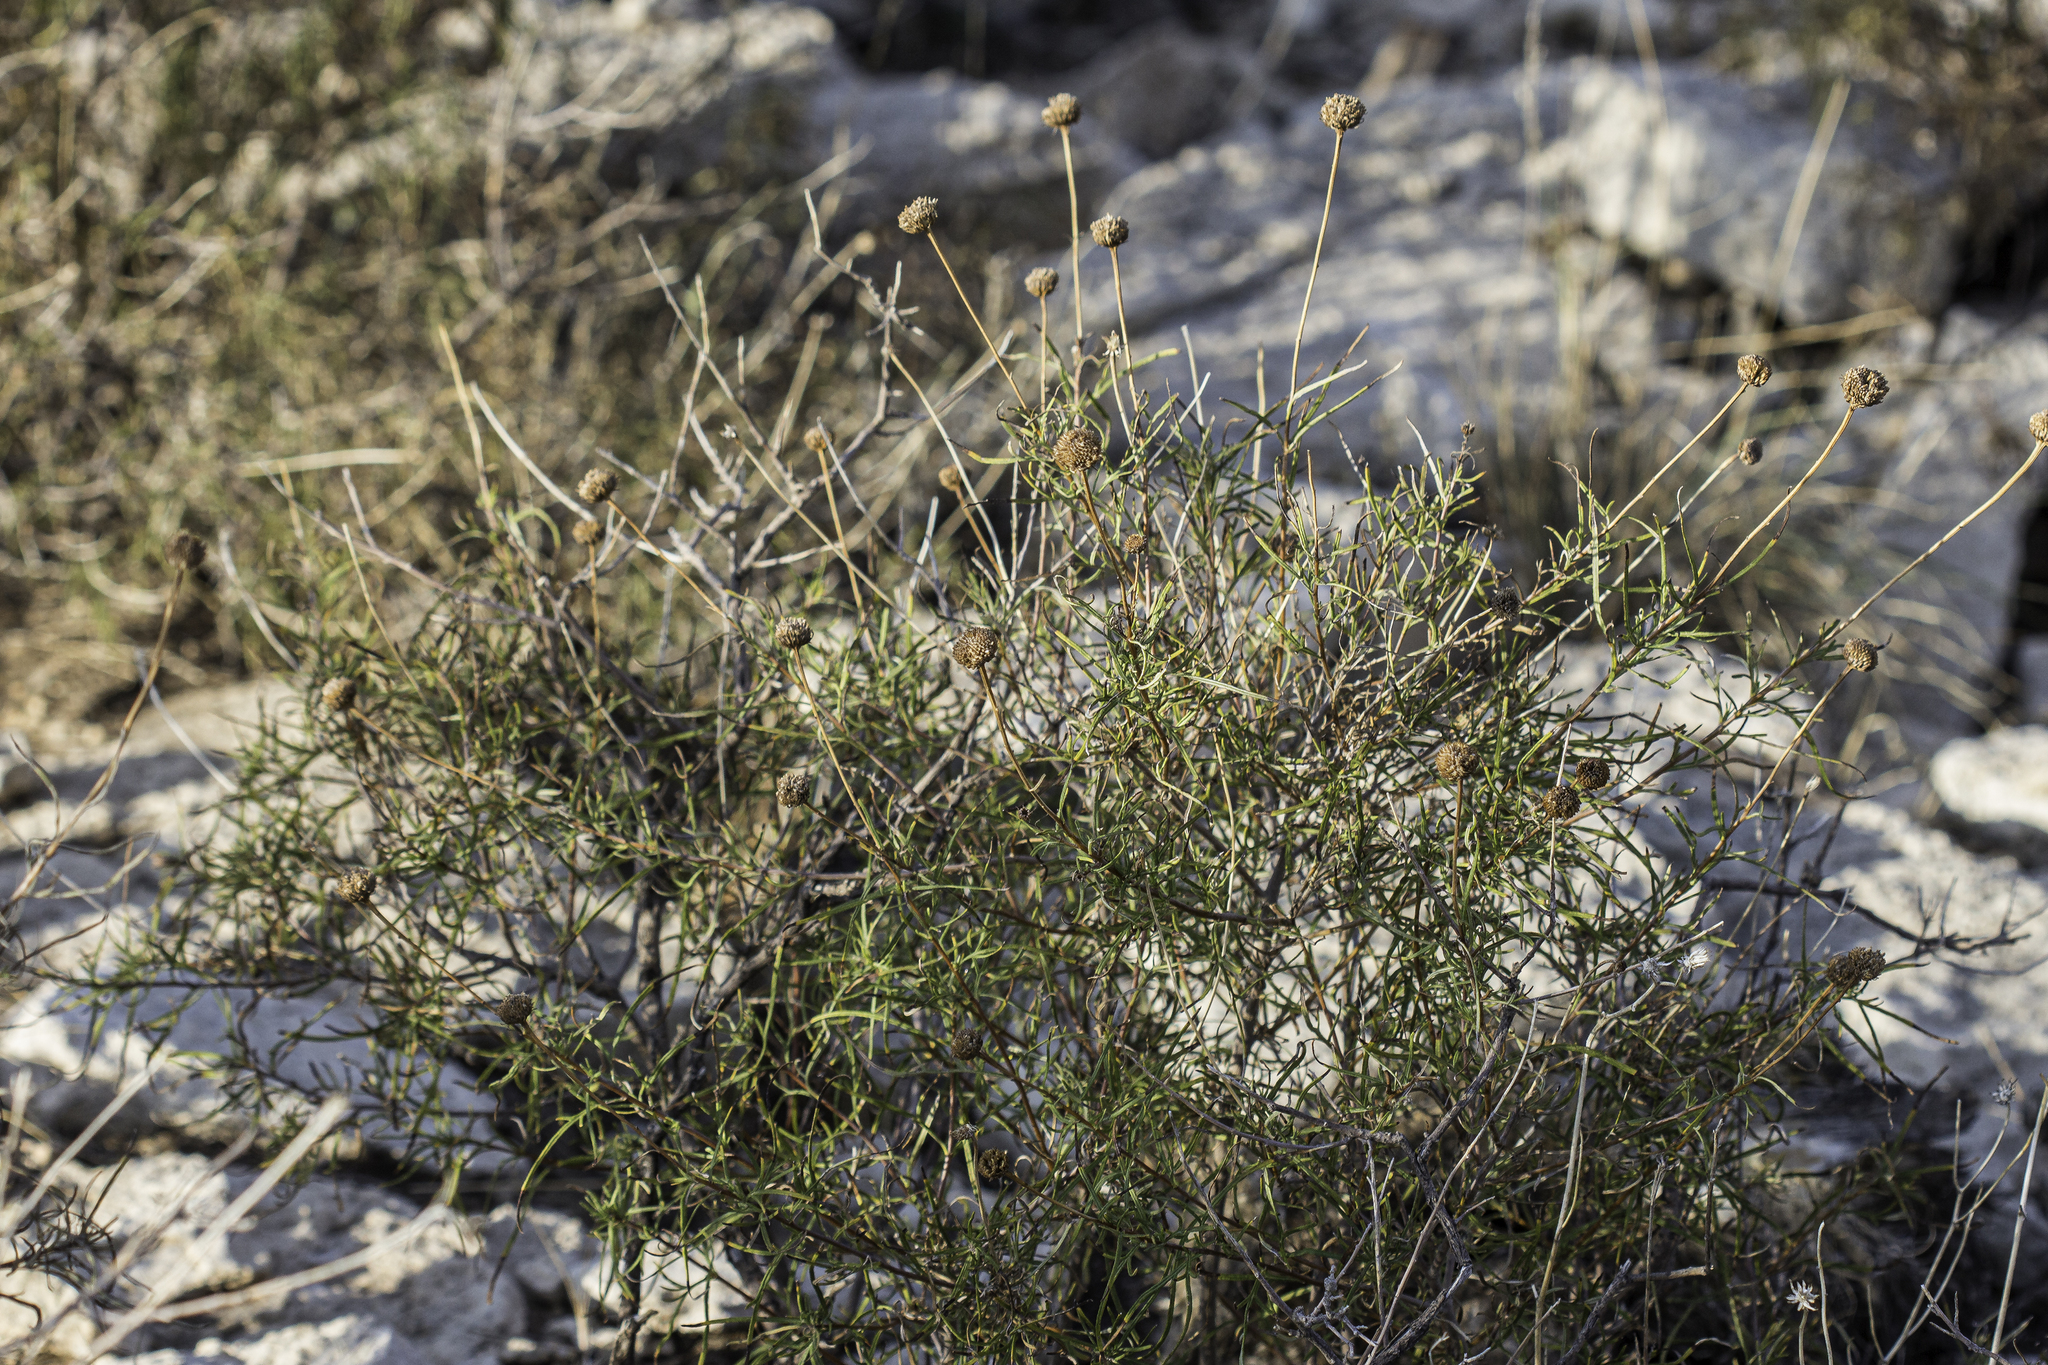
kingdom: Plantae
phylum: Tracheophyta
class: Magnoliopsida
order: Asterales
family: Asteraceae
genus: Sidneya
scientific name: Sidneya tenuifolia
